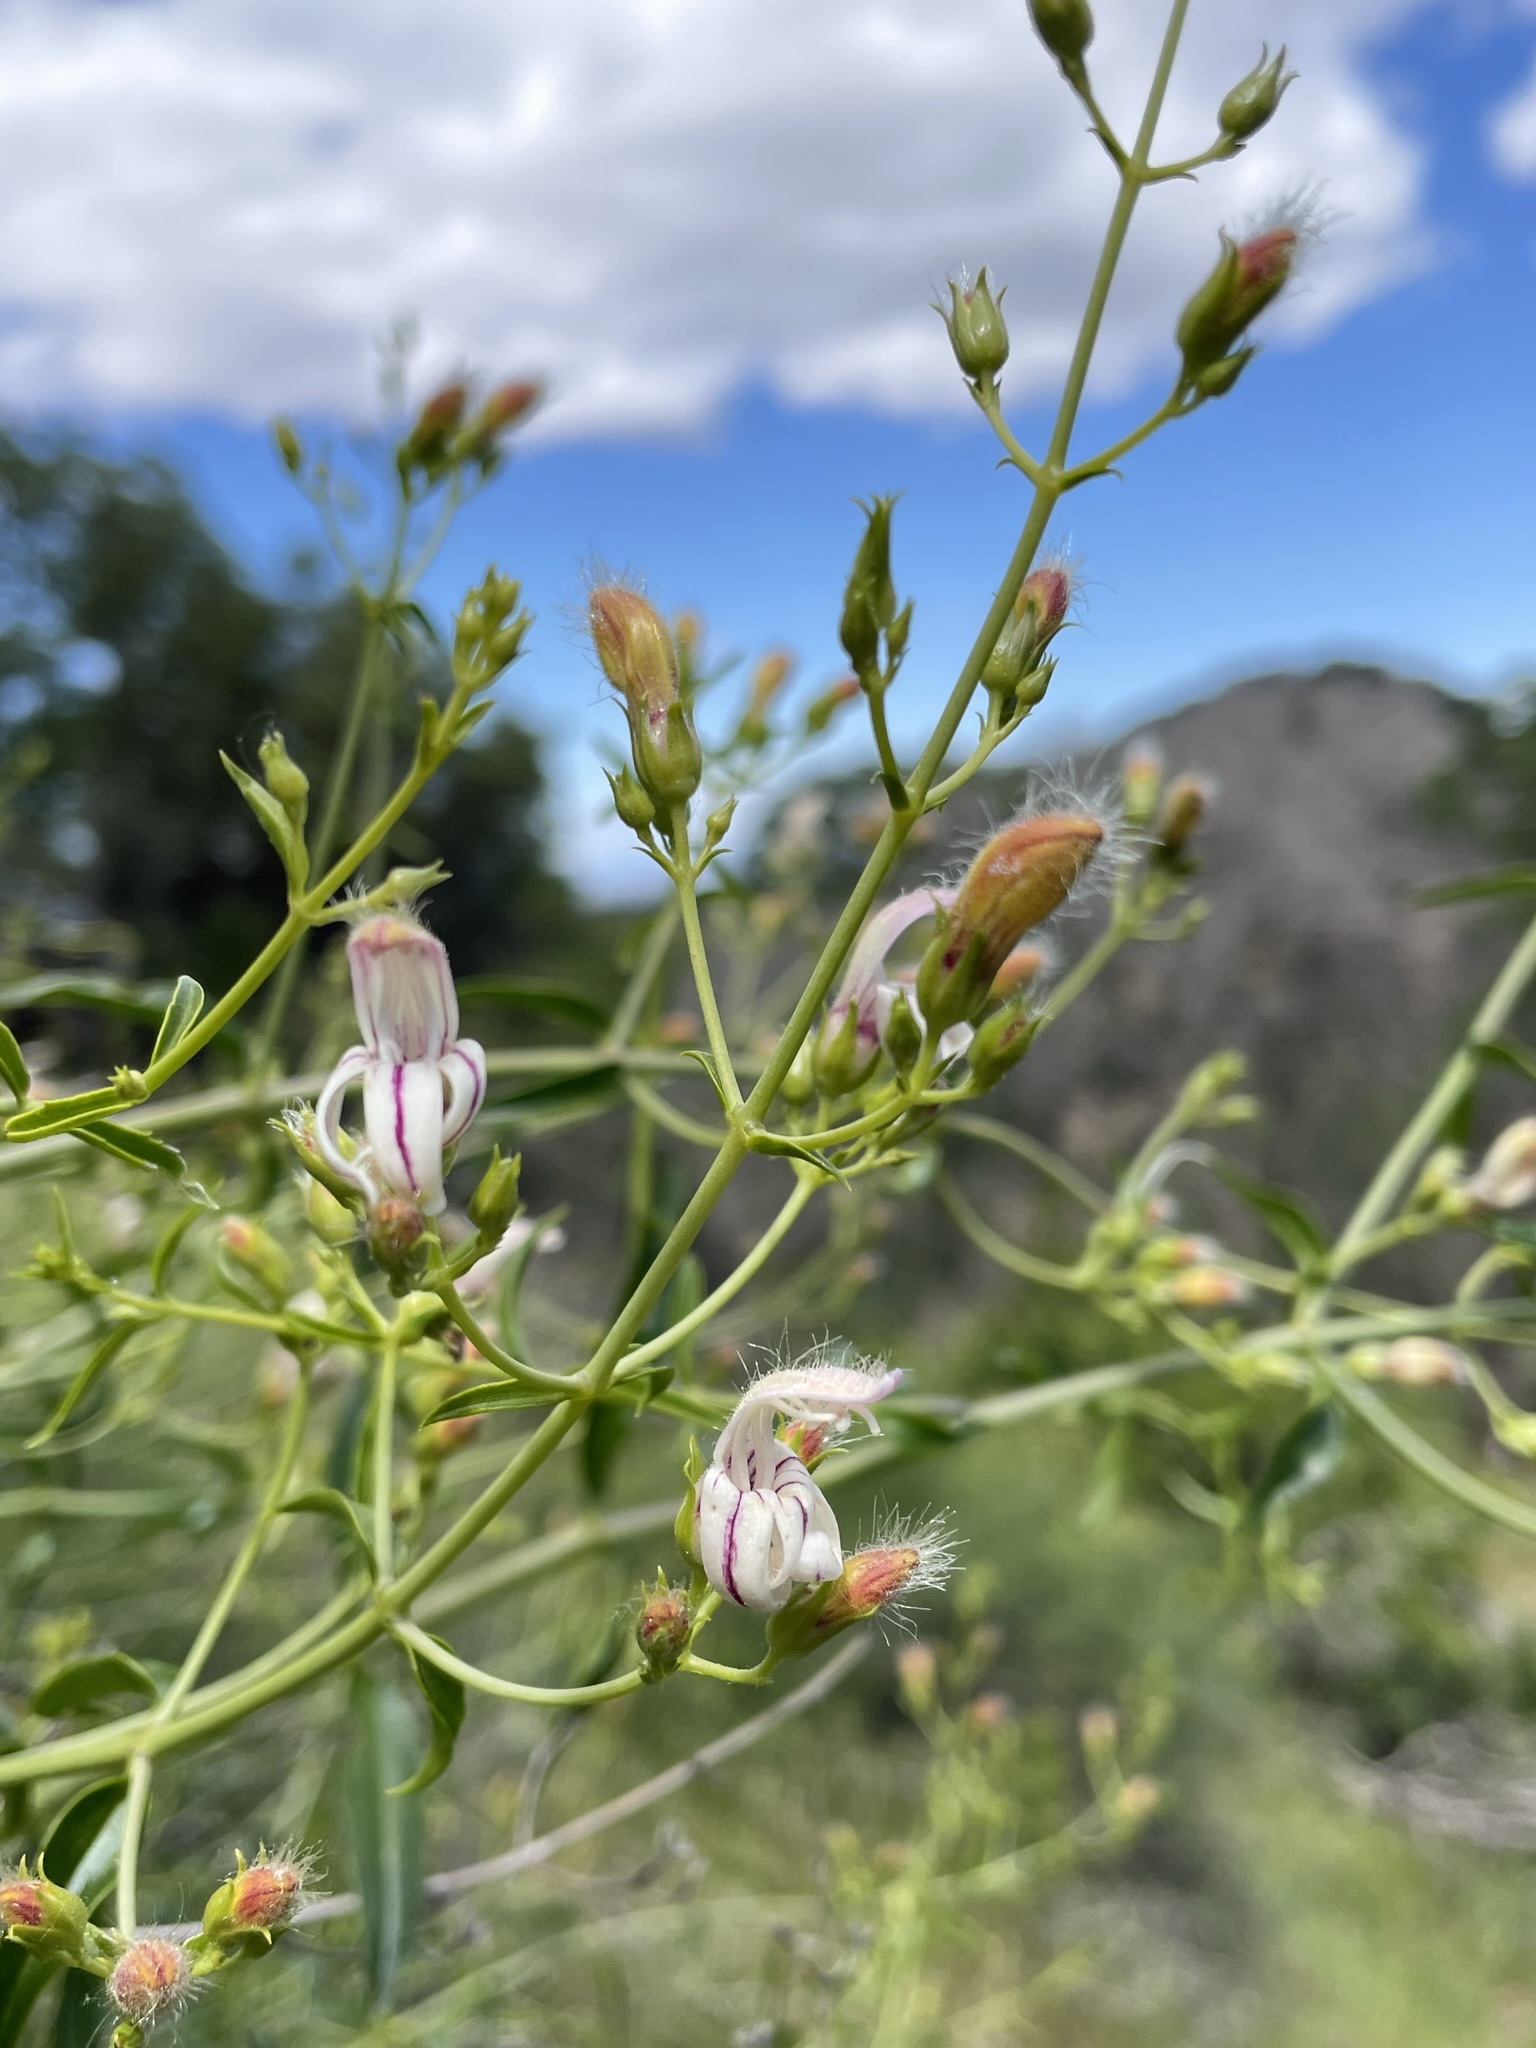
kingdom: Plantae
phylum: Tracheophyta
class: Magnoliopsida
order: Lamiales
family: Plantaginaceae
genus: Keckiella
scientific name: Keckiella breviflora
